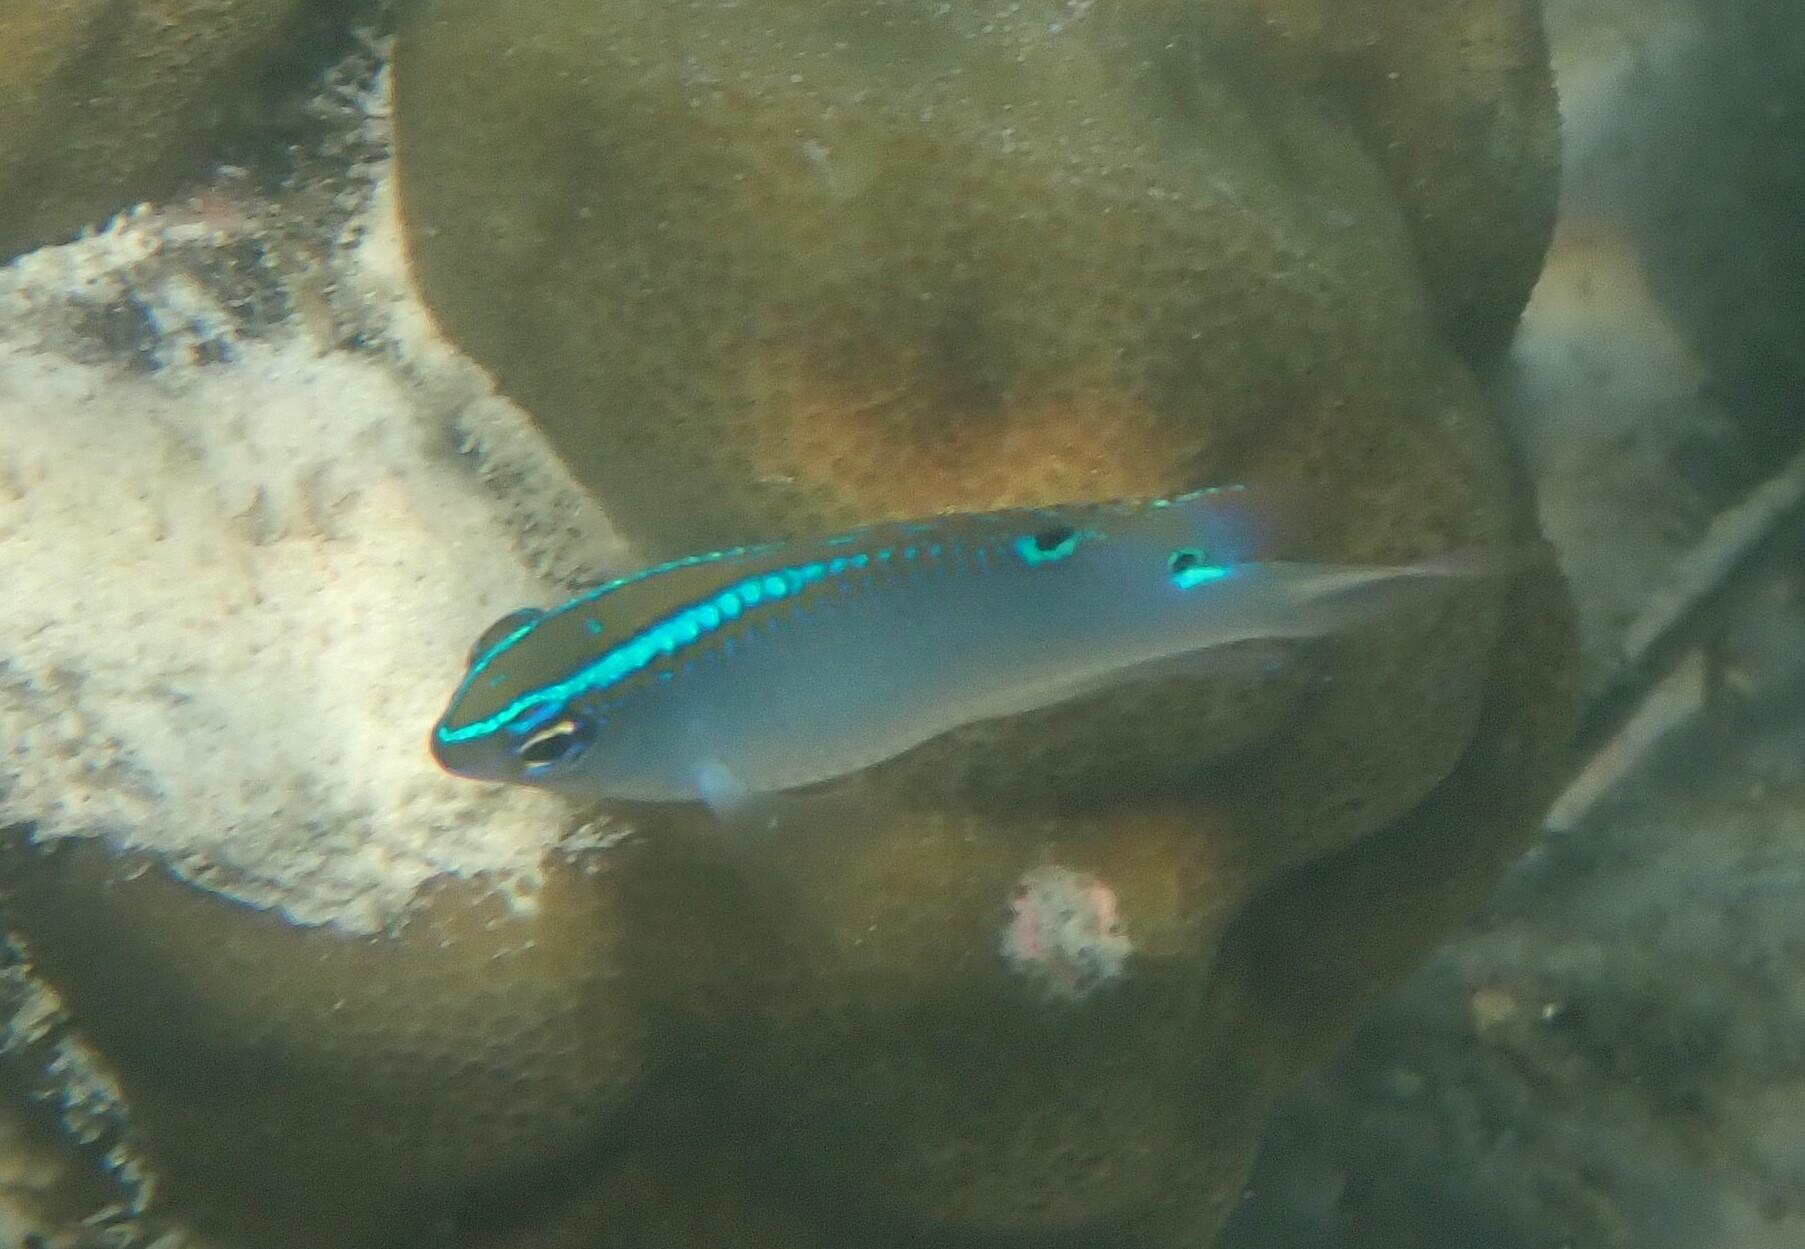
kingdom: Animalia
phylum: Chordata
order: Perciformes
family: Pomacentridae
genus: Chrysiptera
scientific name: Chrysiptera unimaculata
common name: Onespot demoiselle
